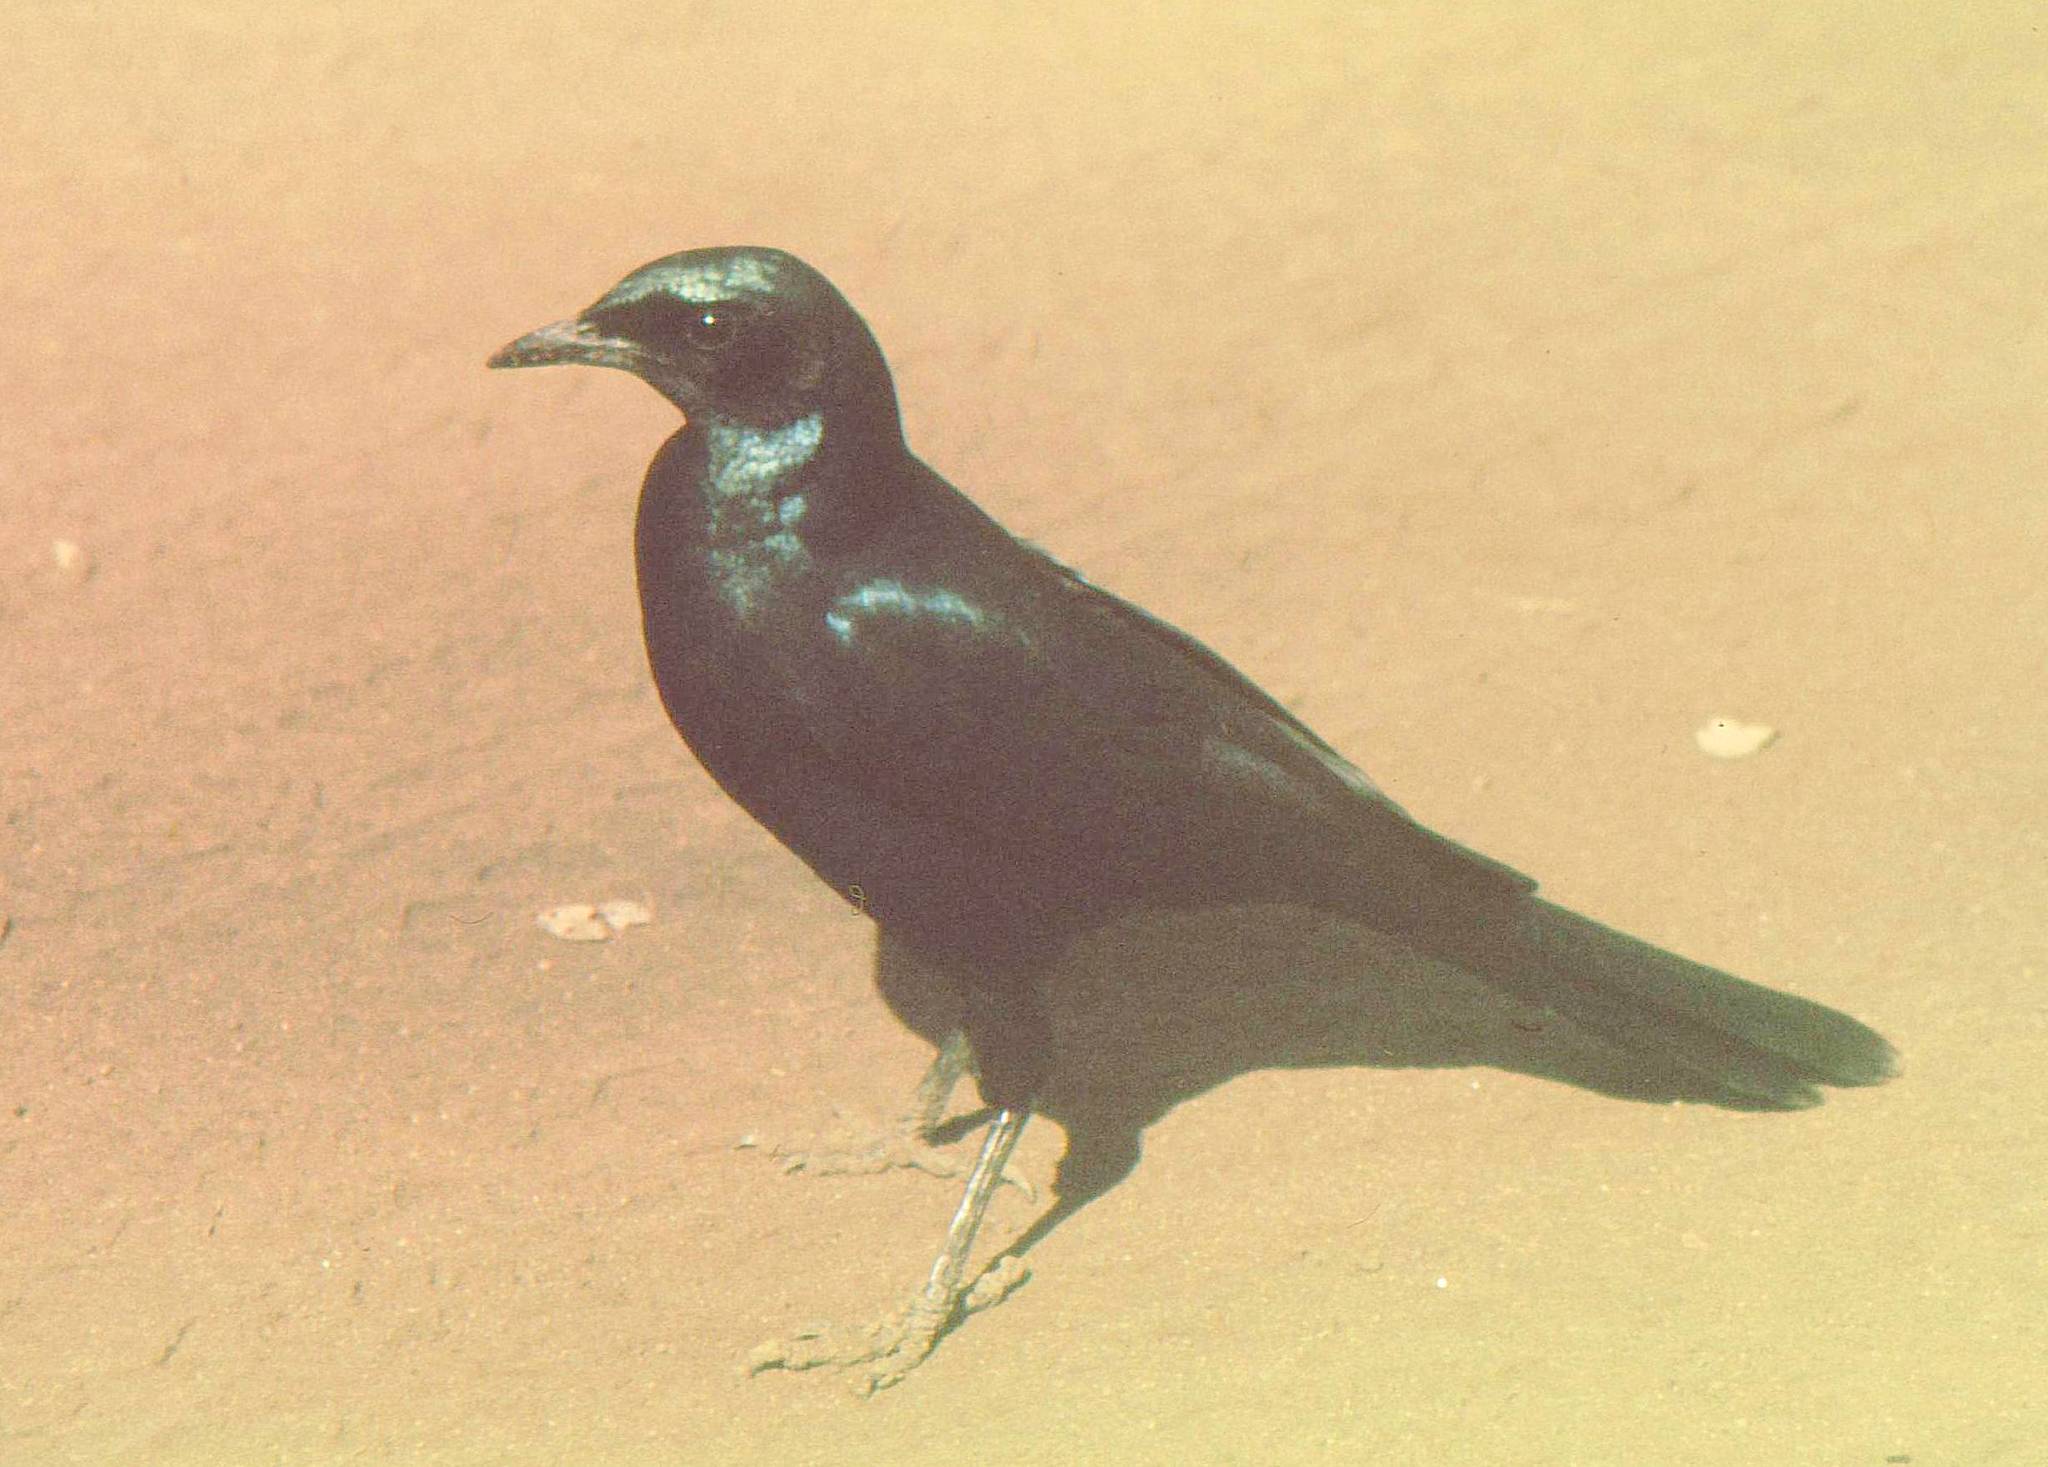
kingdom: Animalia
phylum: Chordata
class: Aves
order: Passeriformes
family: Sturnidae
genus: Lamprotornis
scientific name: Lamprotornis australis
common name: Burchell's starling
